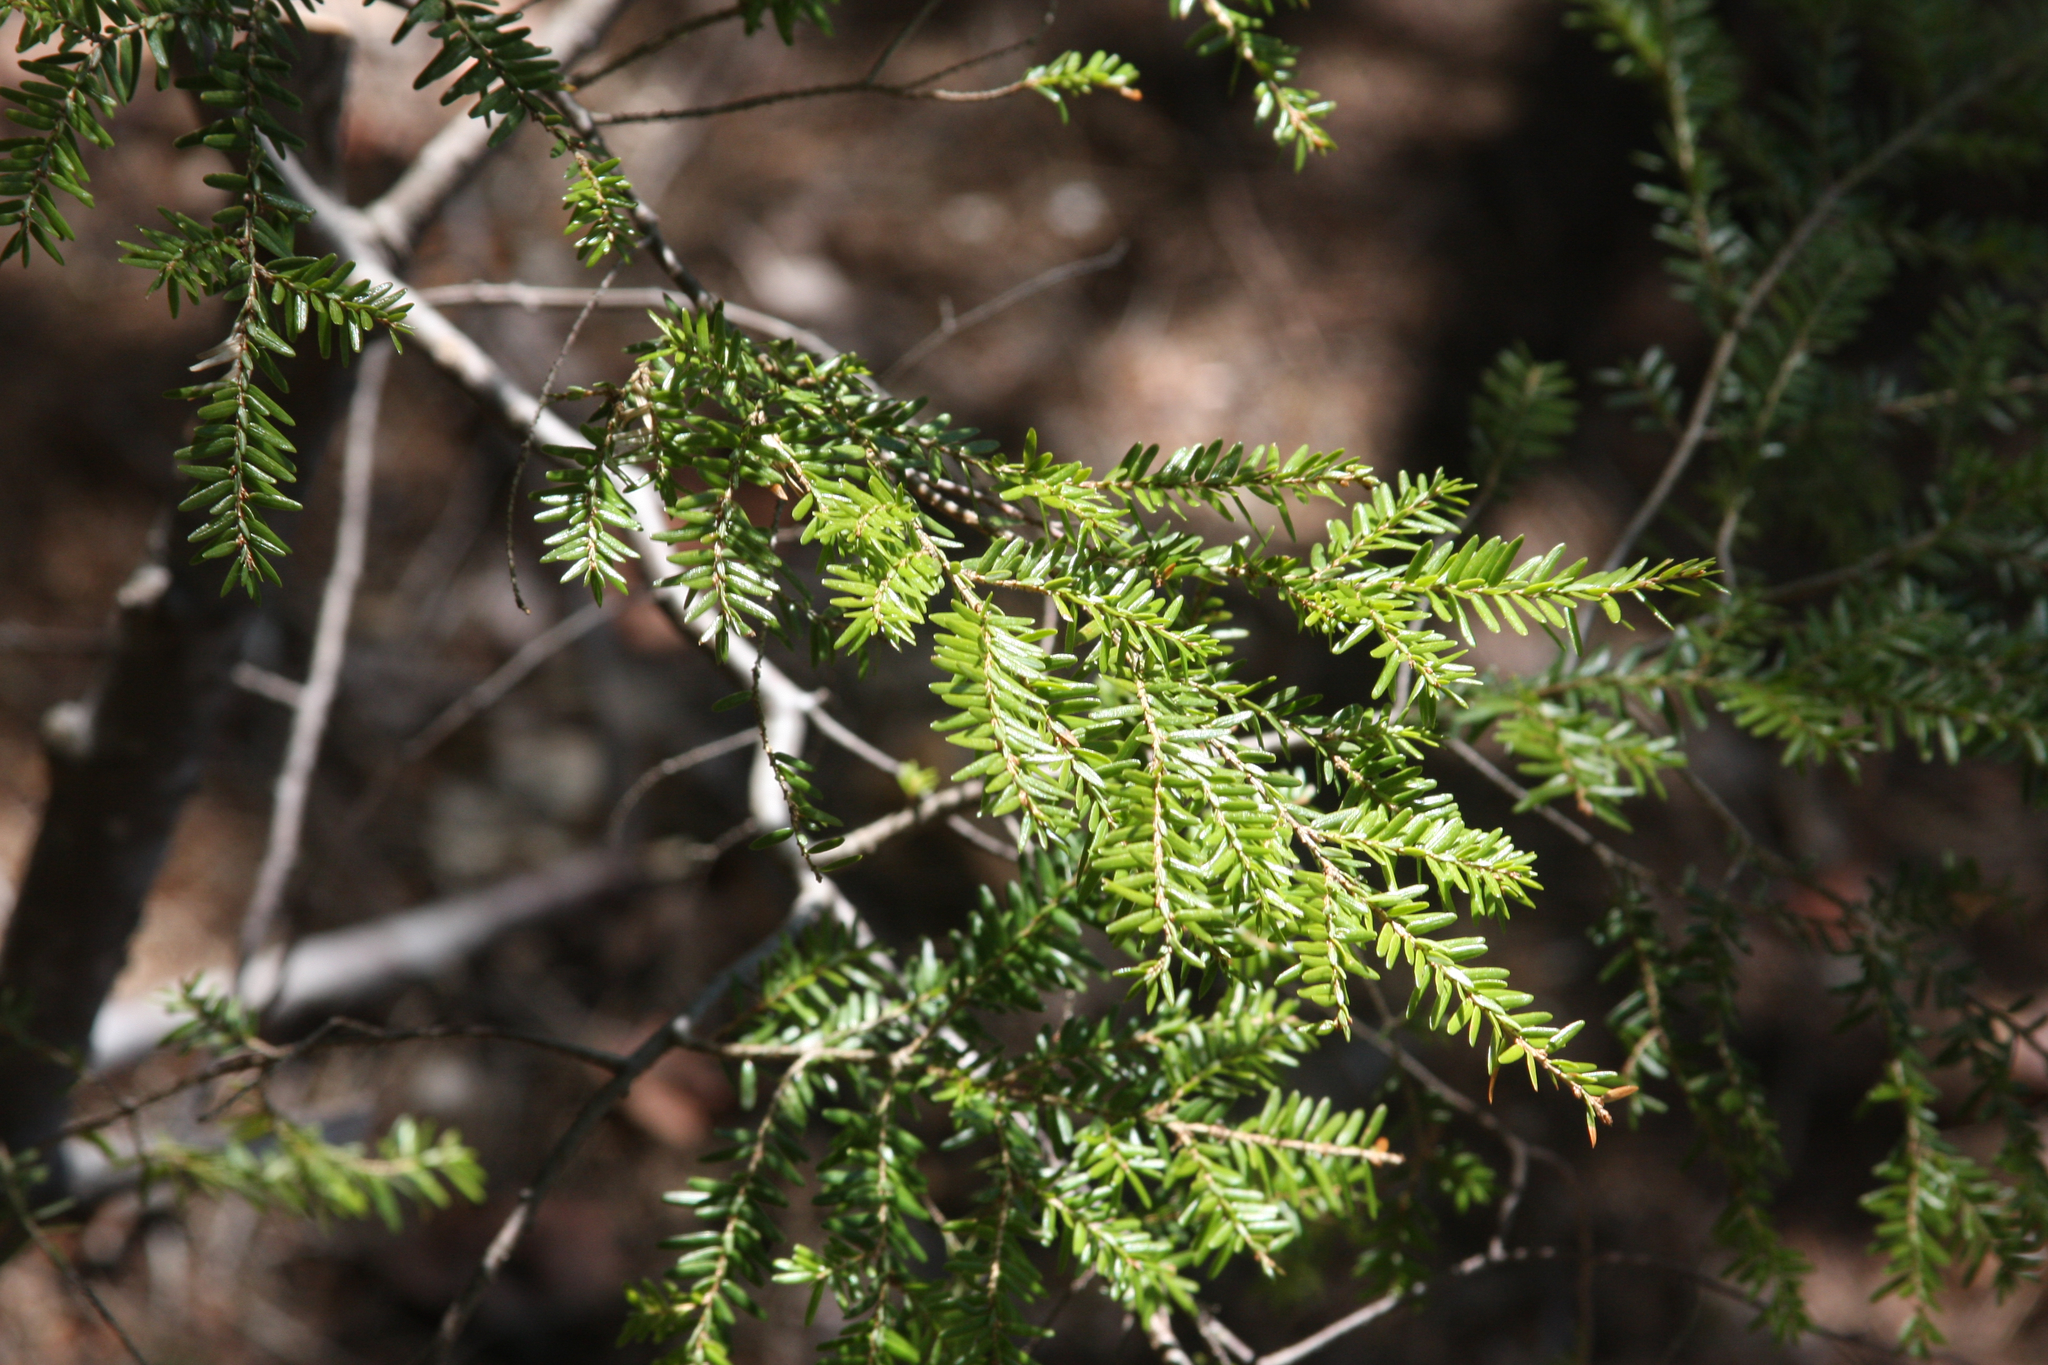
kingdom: Plantae
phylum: Tracheophyta
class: Pinopsida
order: Pinales
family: Pinaceae
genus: Tsuga
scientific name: Tsuga canadensis
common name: Eastern hemlock
